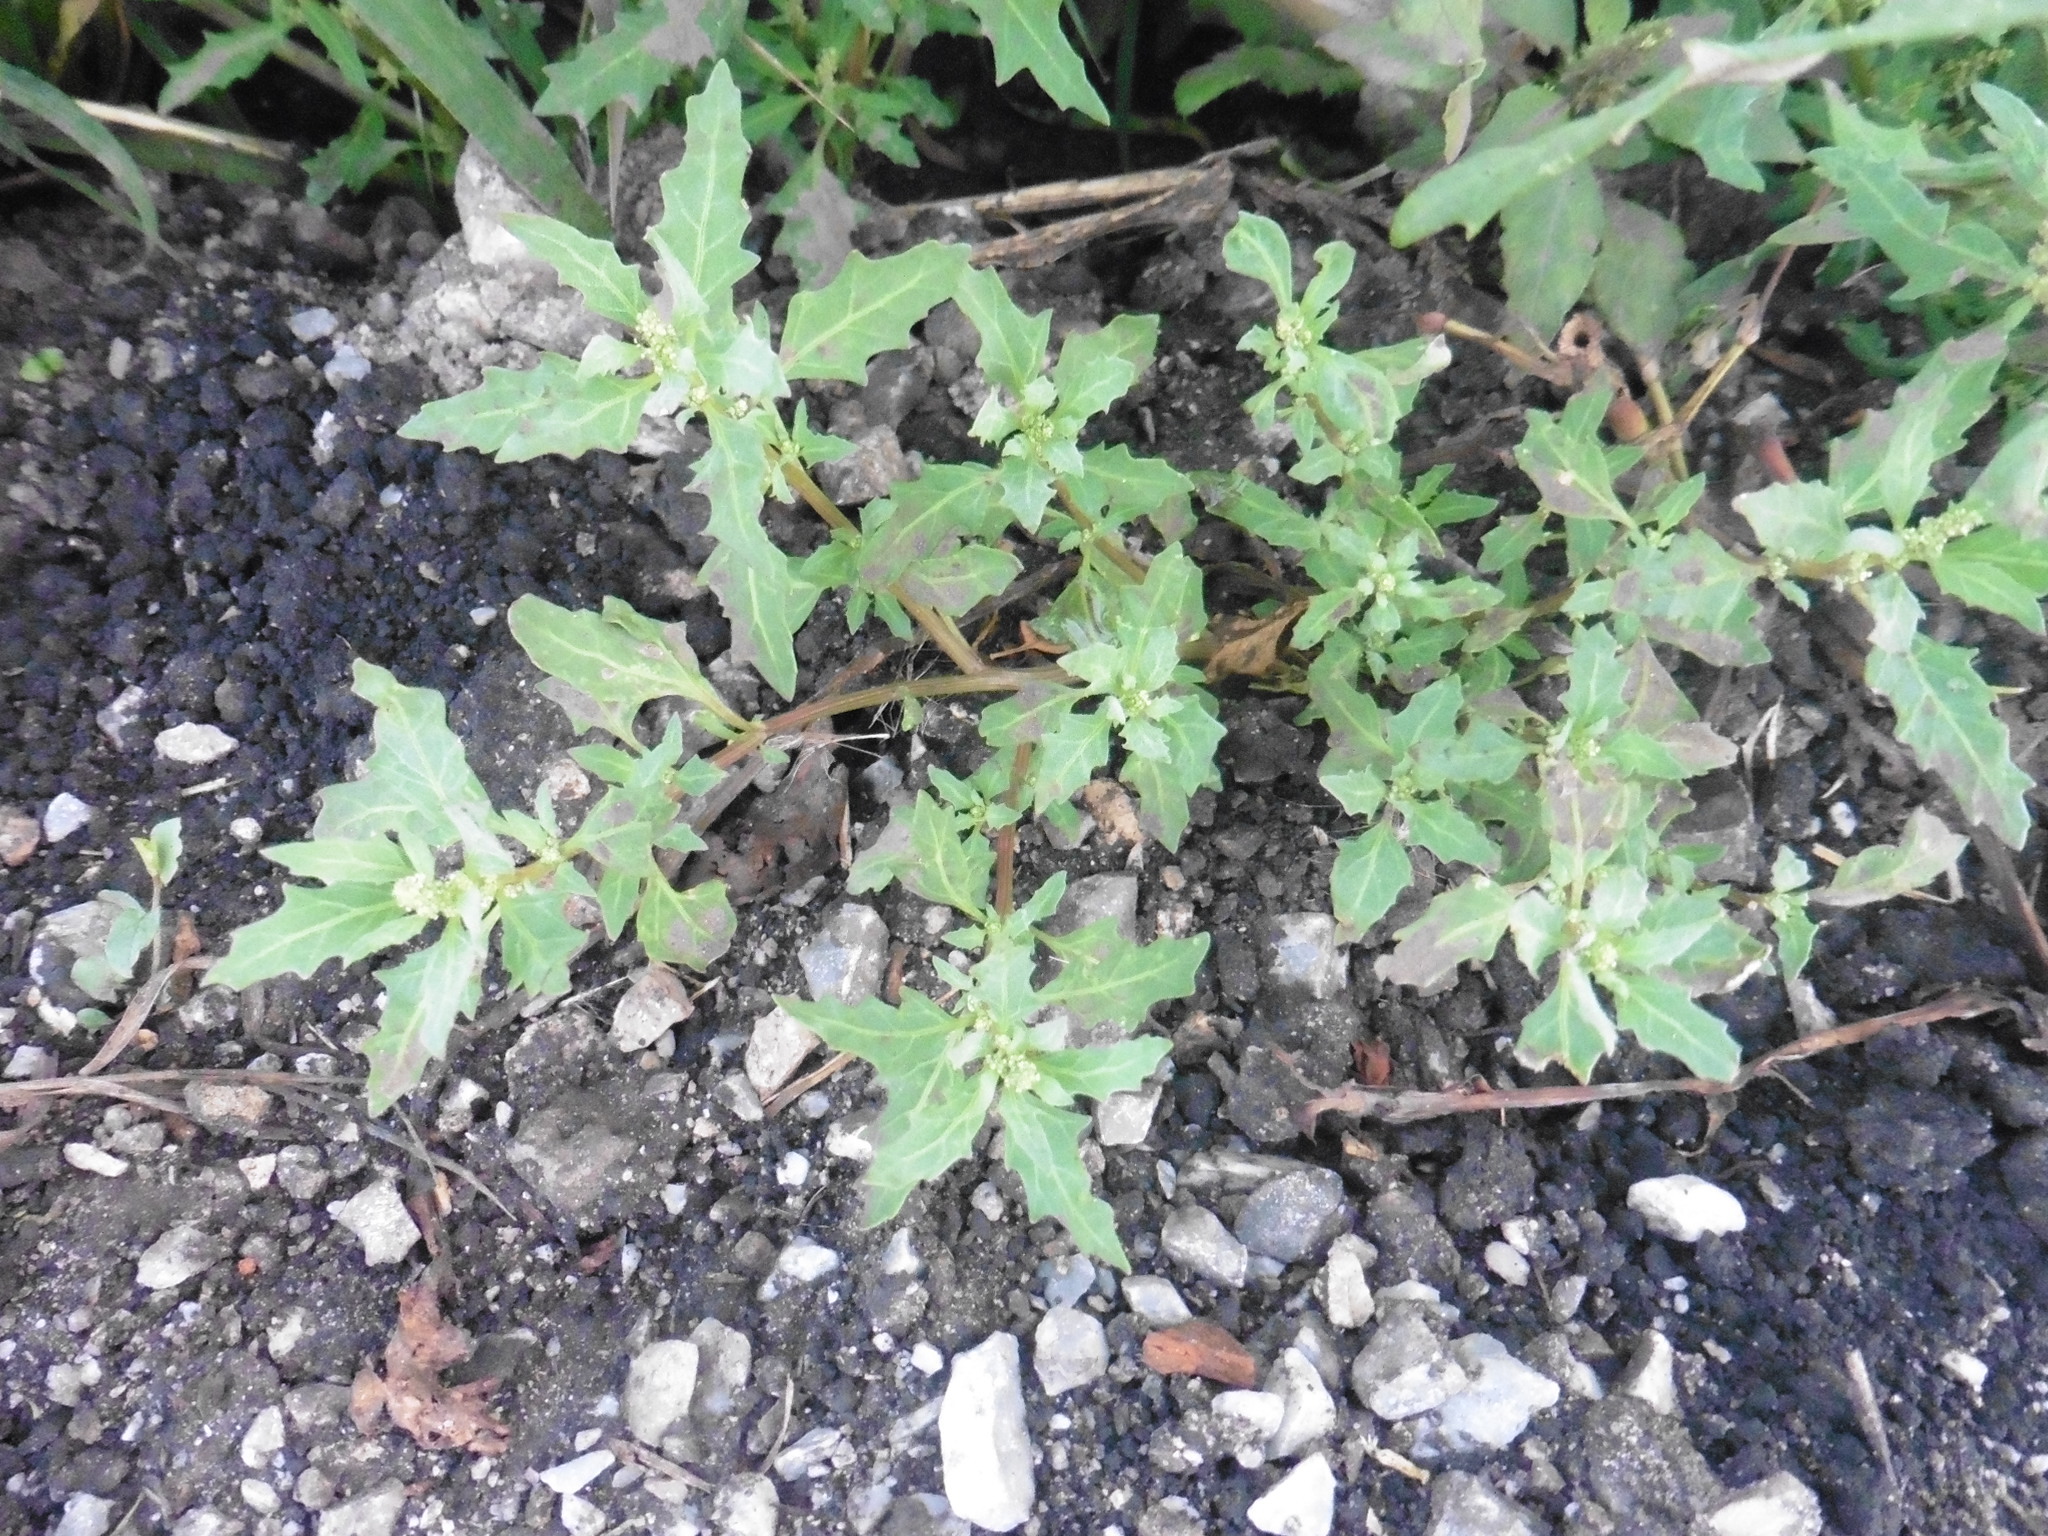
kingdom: Plantae
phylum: Tracheophyta
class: Magnoliopsida
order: Caryophyllales
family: Amaranthaceae
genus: Oxybasis
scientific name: Oxybasis glauca
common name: Glaucous goosefoot
